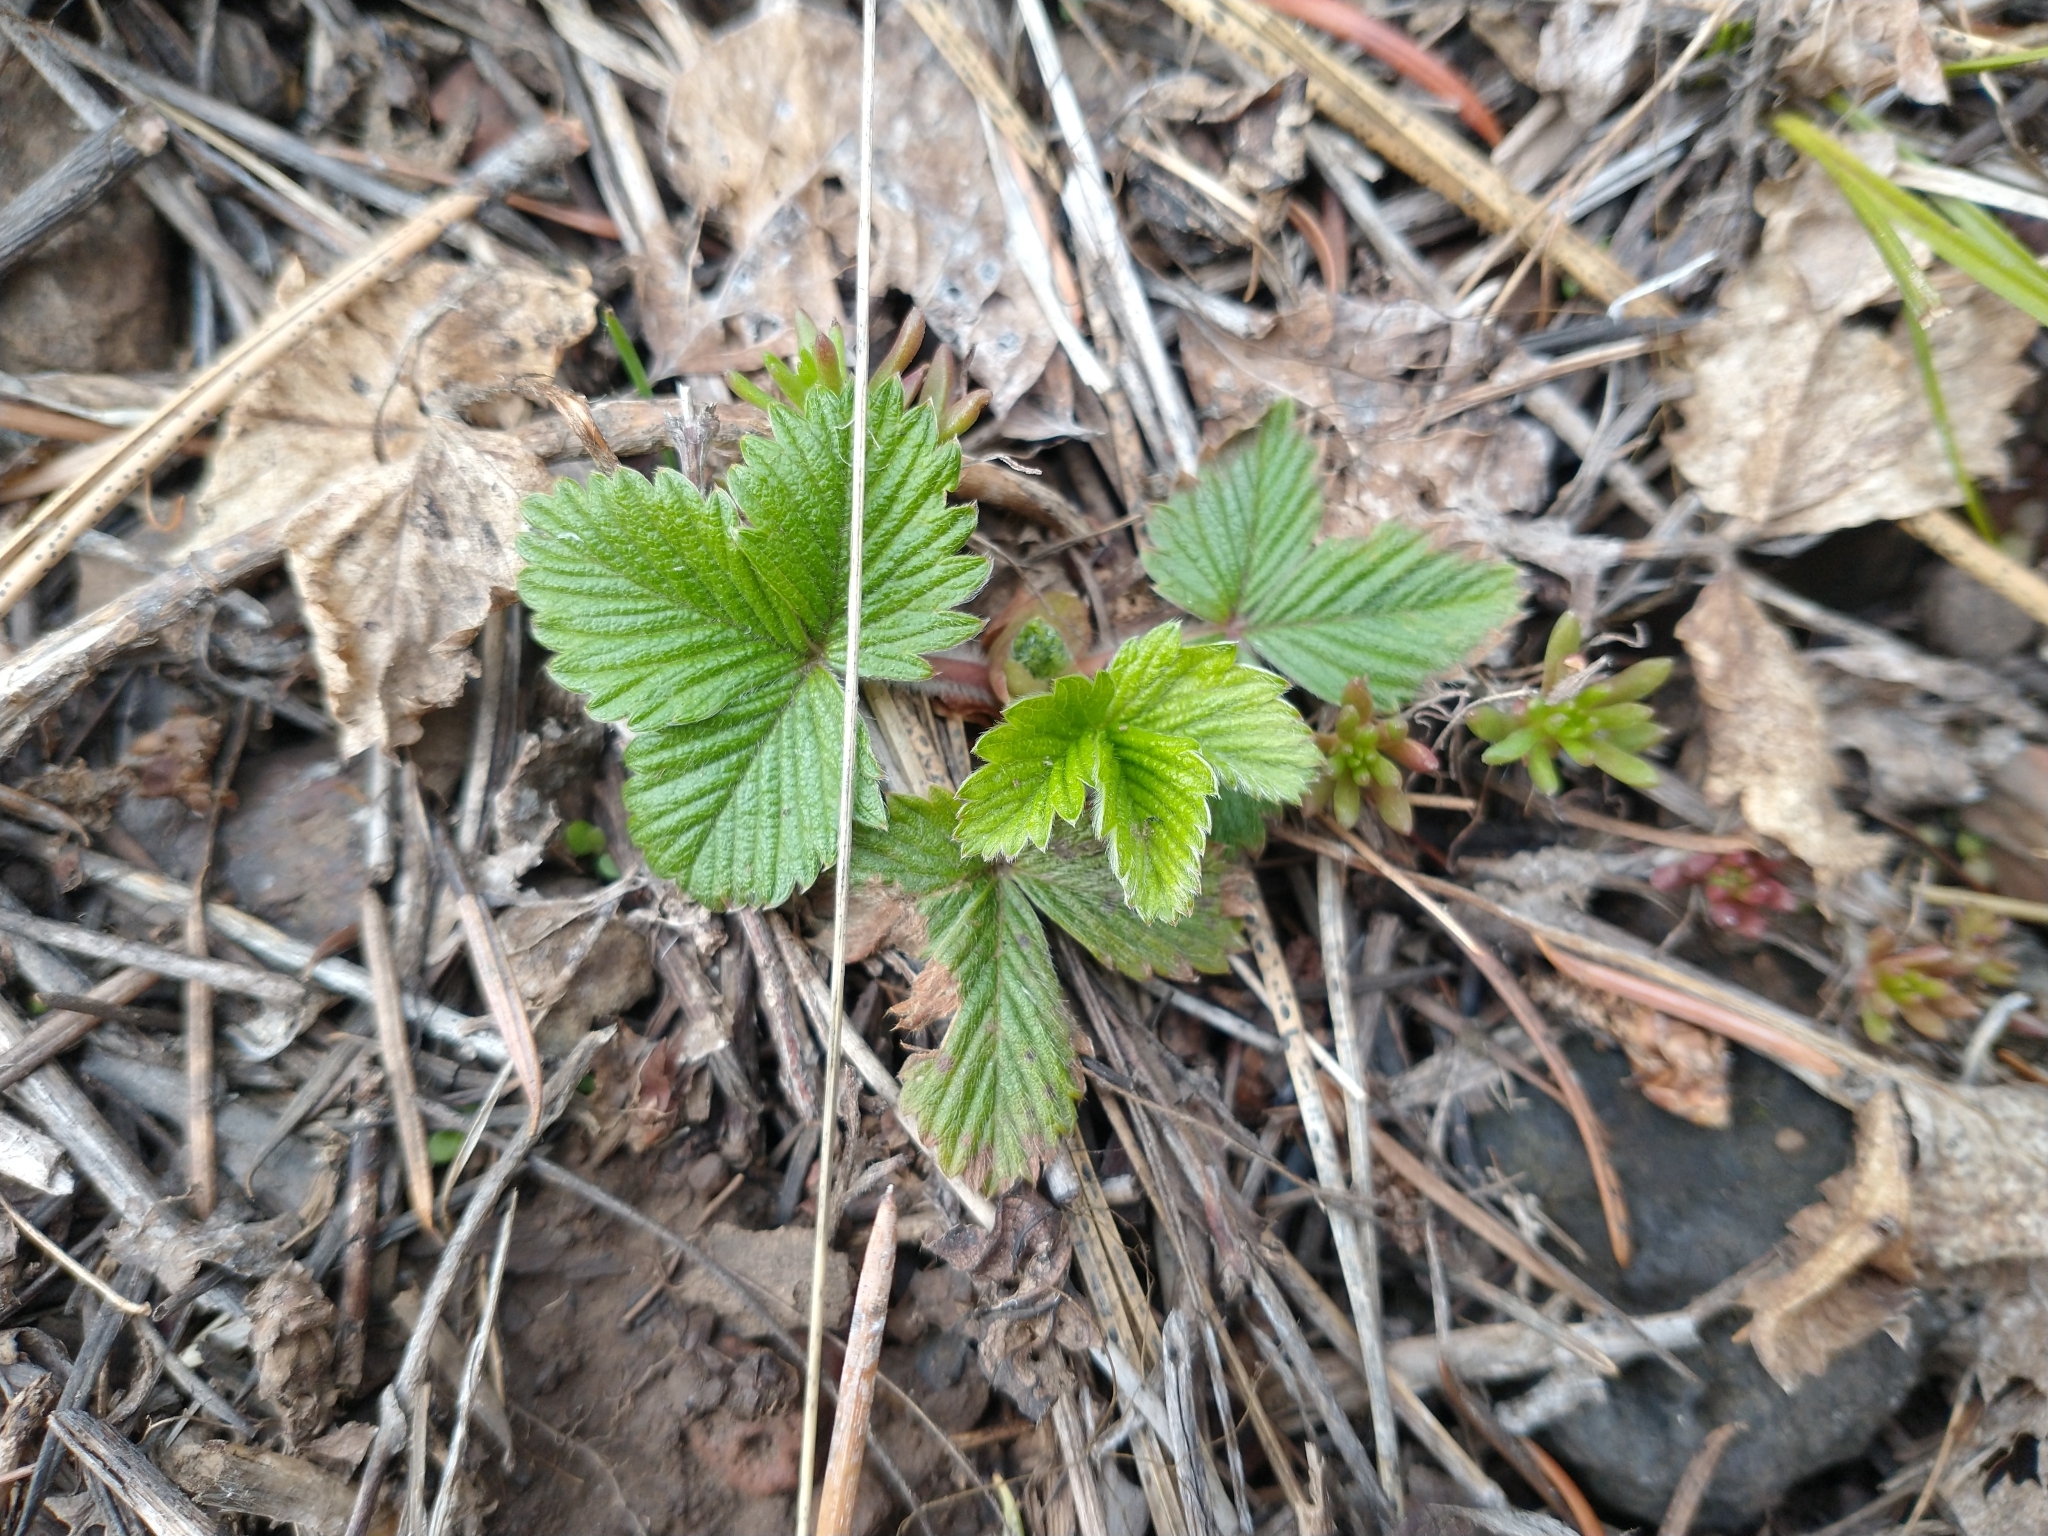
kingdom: Plantae
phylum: Tracheophyta
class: Magnoliopsida
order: Rosales
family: Rosaceae
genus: Fragaria
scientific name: Fragaria vesca
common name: Wild strawberry
